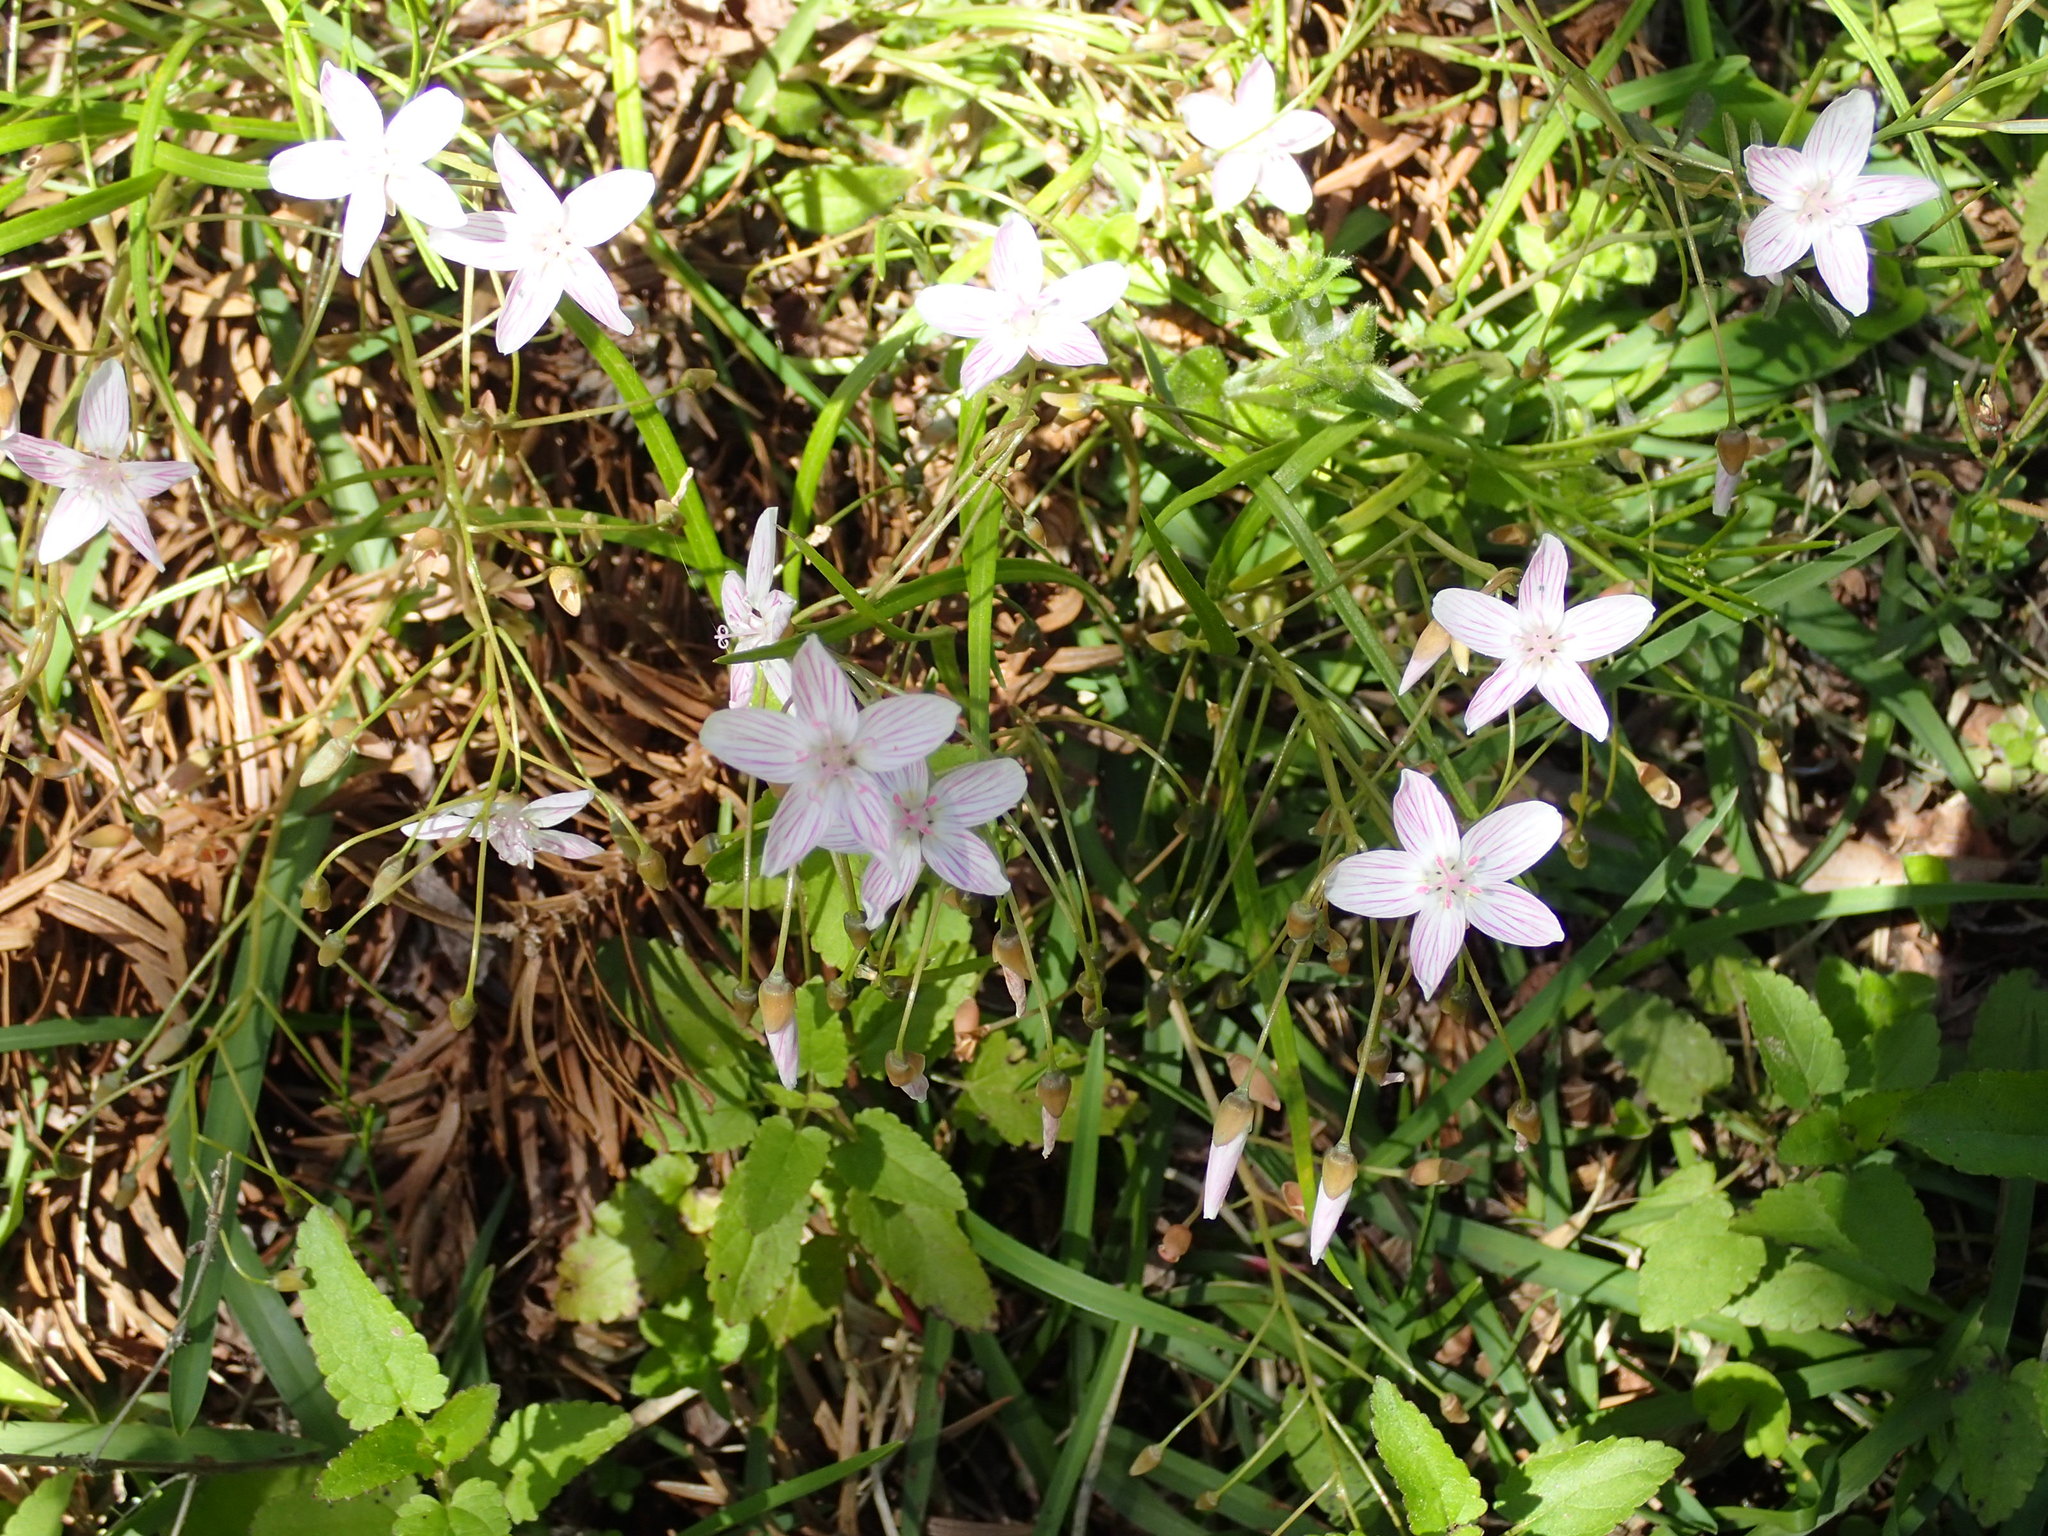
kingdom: Plantae
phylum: Tracheophyta
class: Magnoliopsida
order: Caryophyllales
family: Montiaceae
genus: Claytonia
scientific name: Claytonia virginica
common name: Virginia springbeauty
